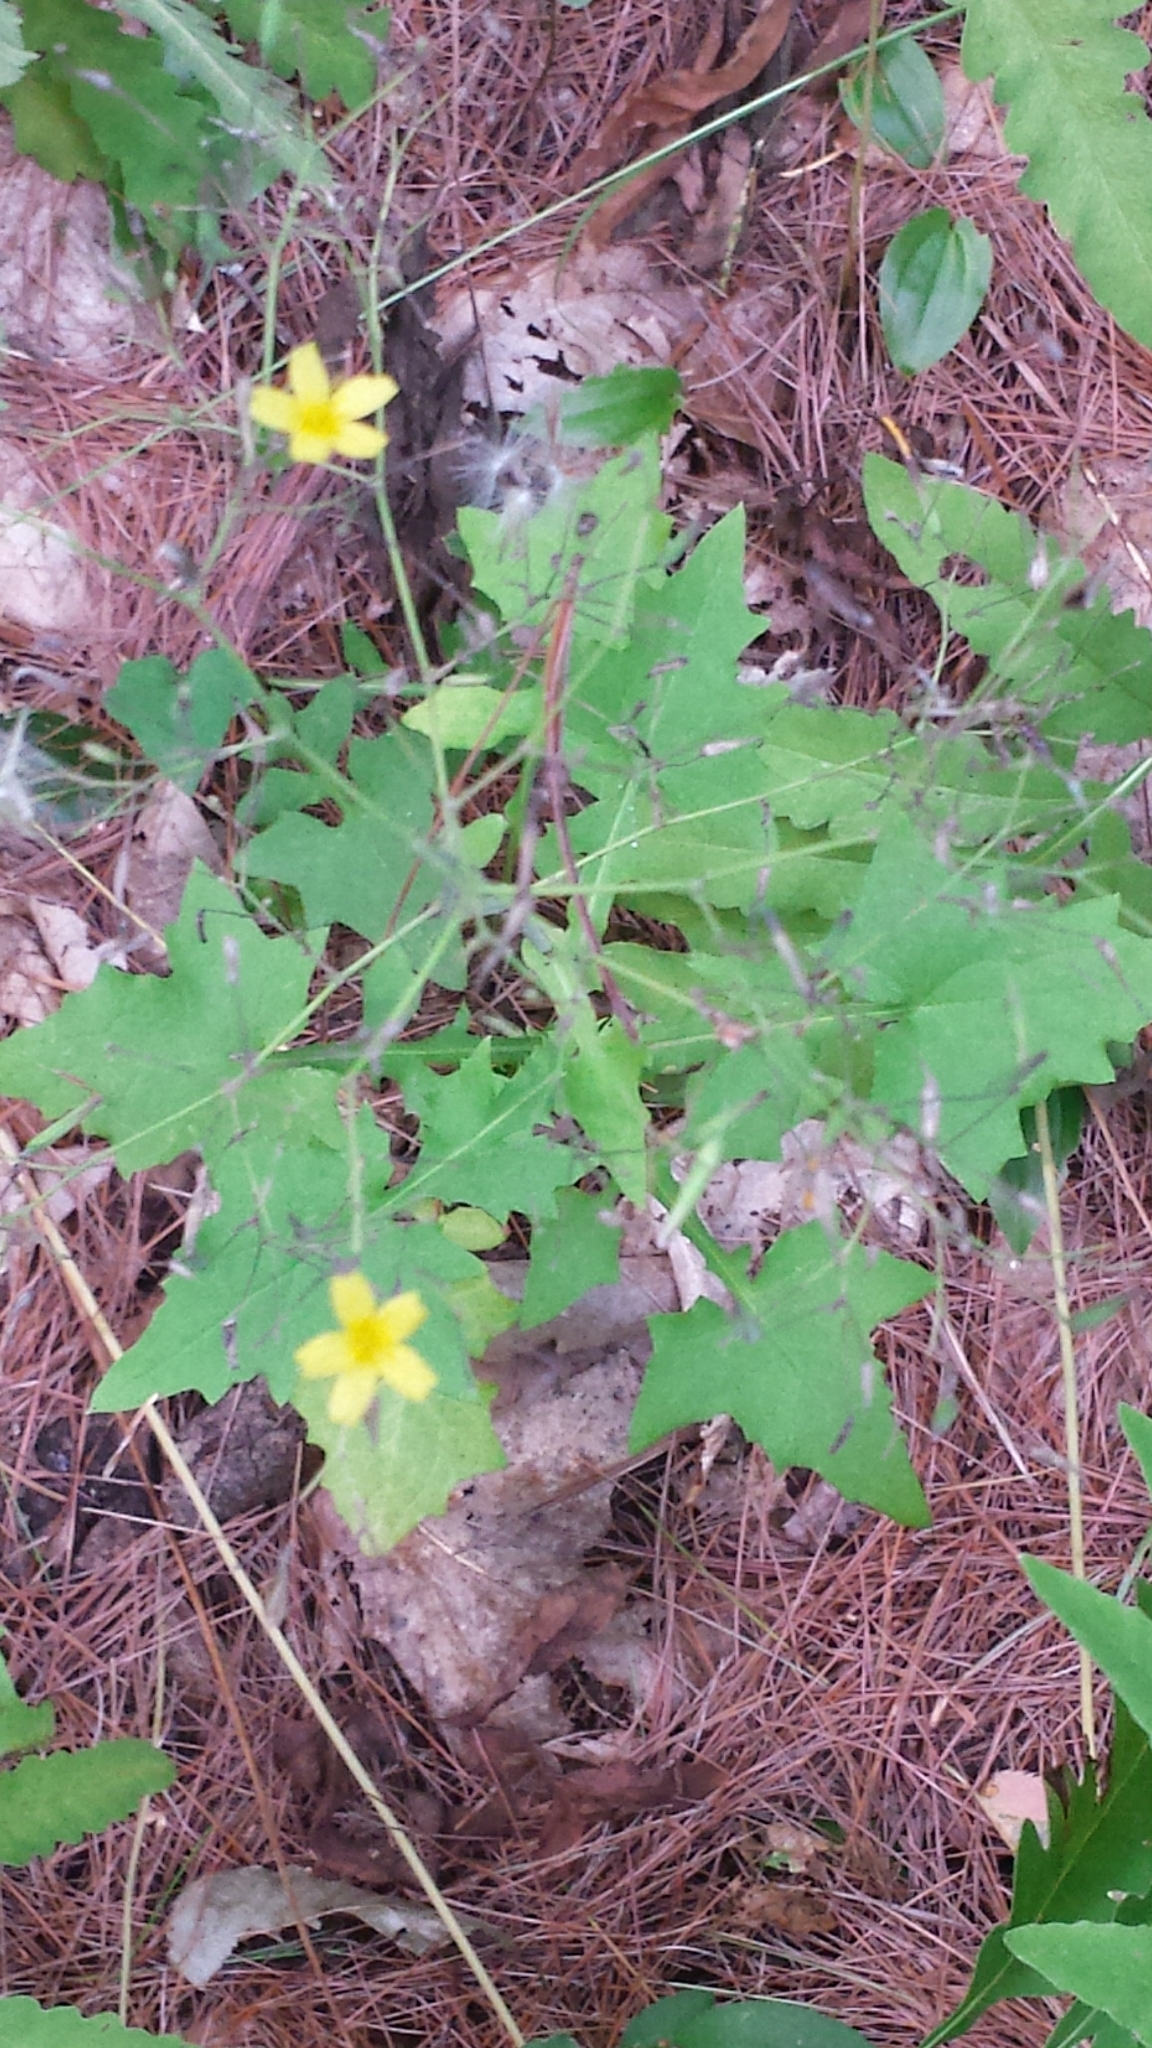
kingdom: Plantae
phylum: Tracheophyta
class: Magnoliopsida
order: Asterales
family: Asteraceae
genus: Mycelis
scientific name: Mycelis muralis
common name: Wall lettuce
